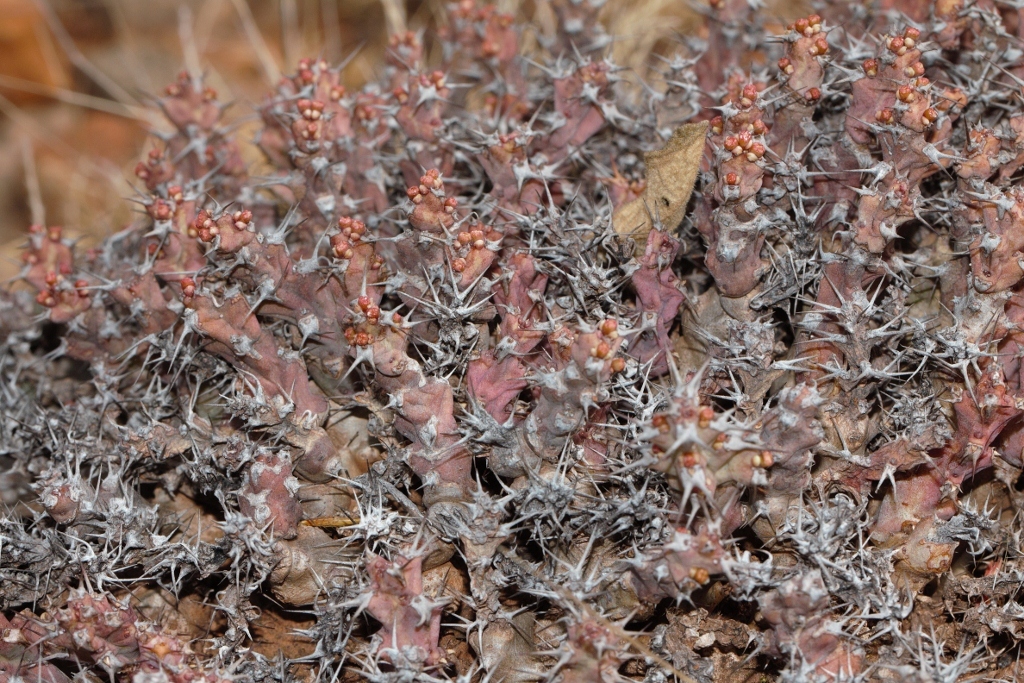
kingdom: Plantae
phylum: Tracheophyta
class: Magnoliopsida
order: Malpighiales
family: Euphorbiaceae
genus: Euphorbia
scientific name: Euphorbia acervata
